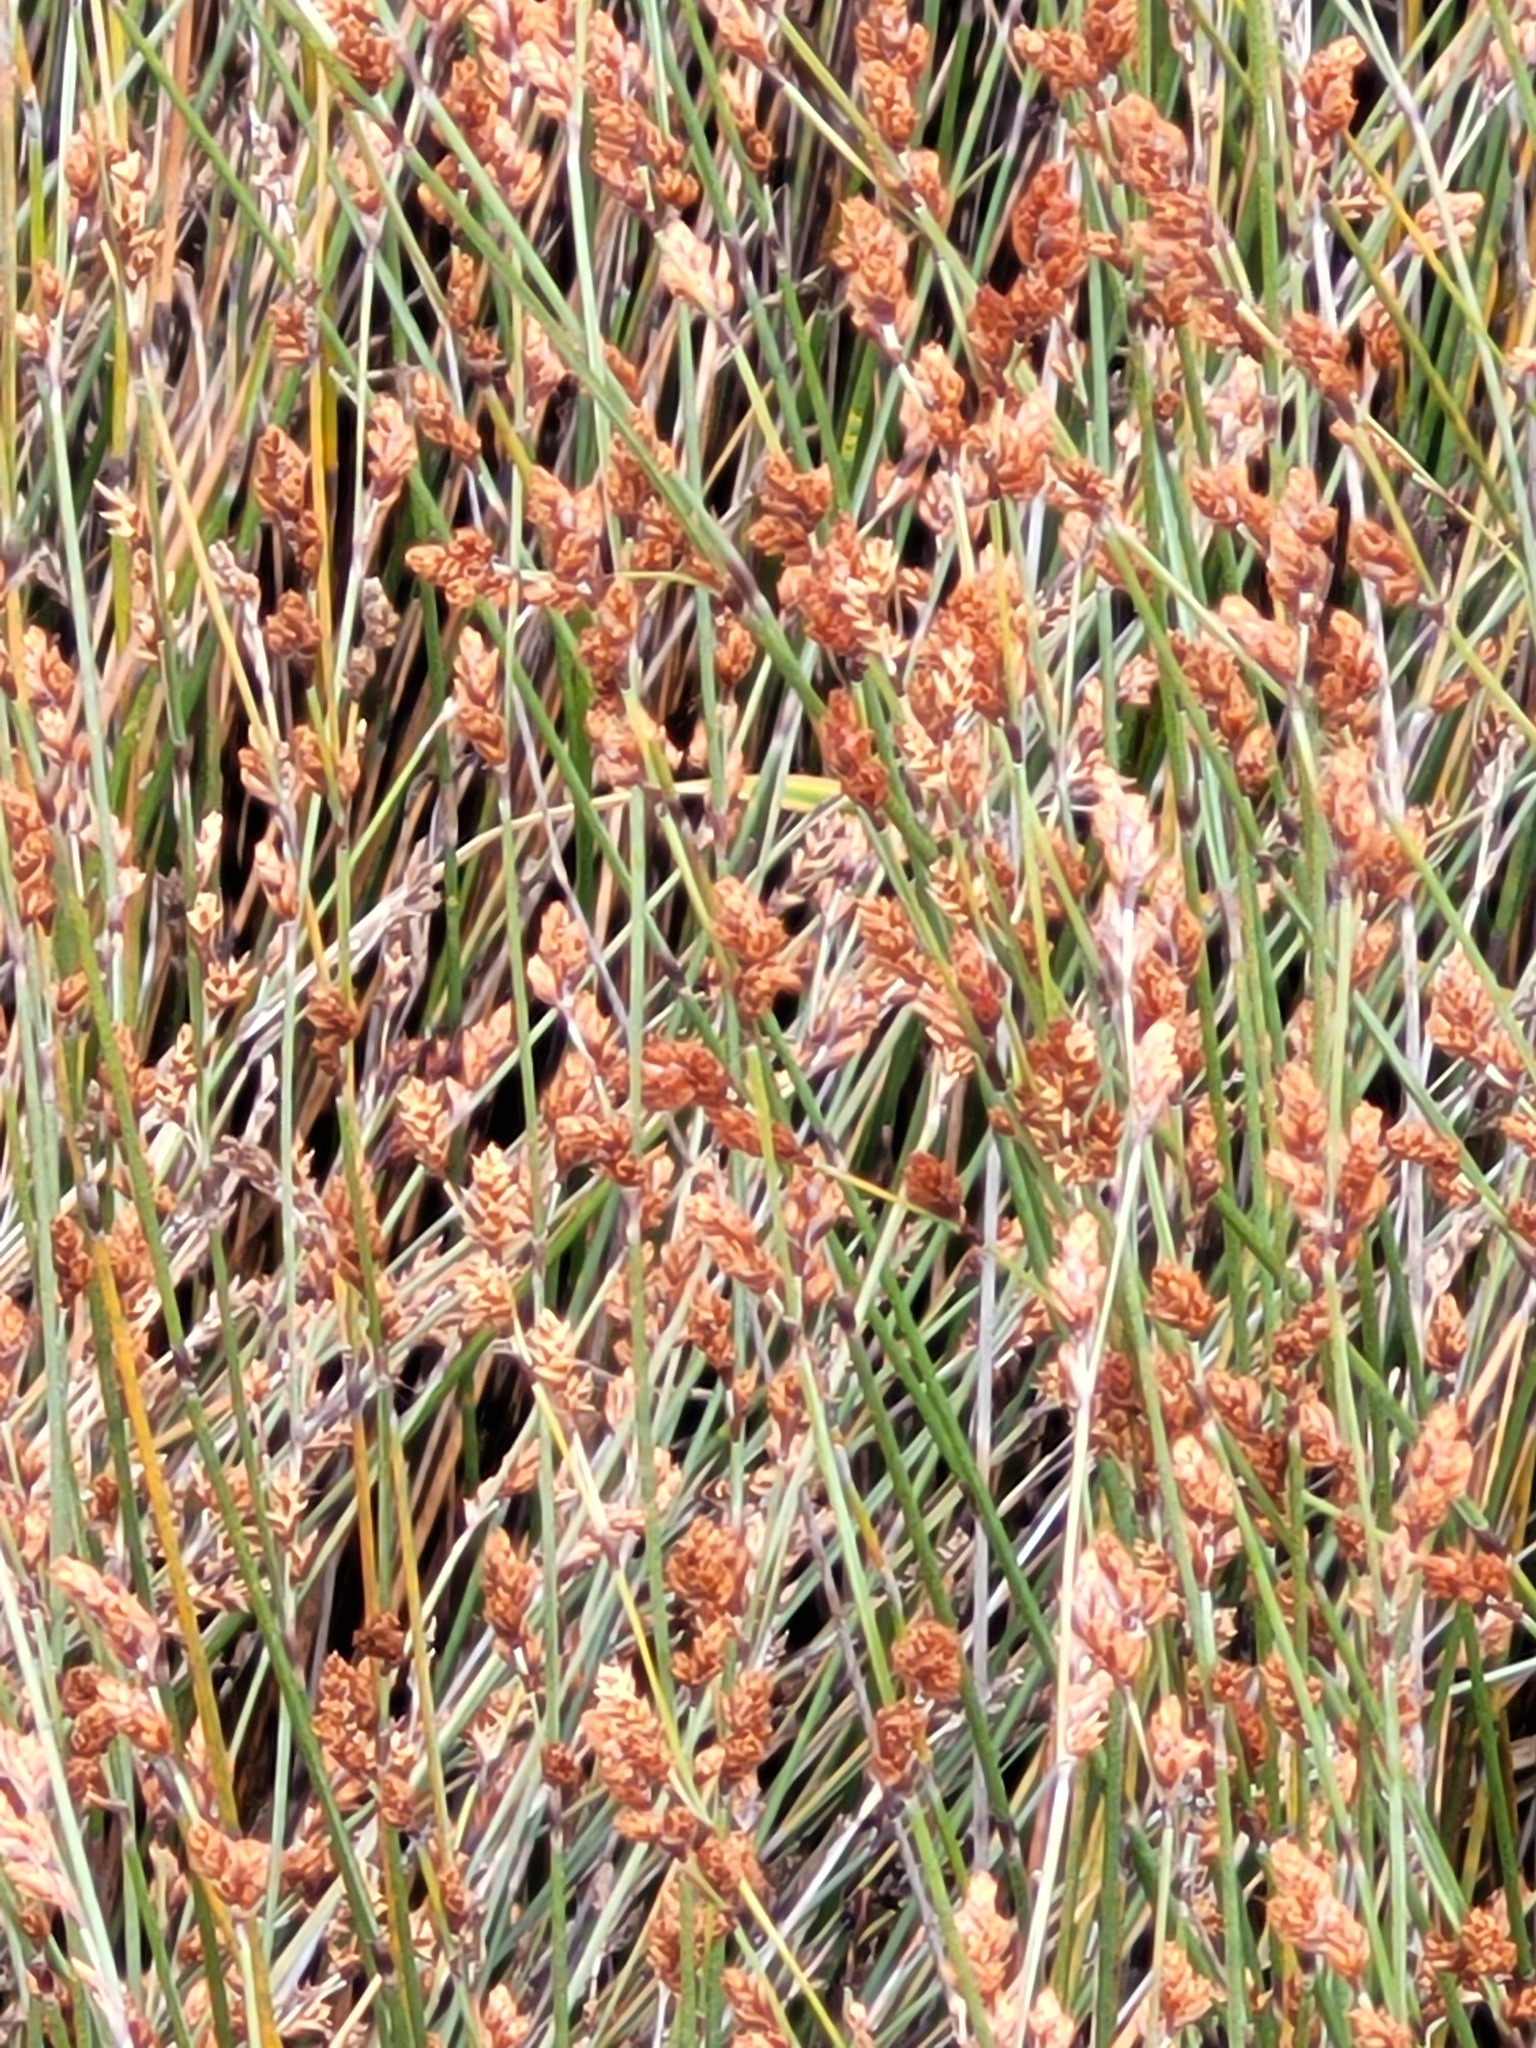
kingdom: Plantae
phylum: Tracheophyta
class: Liliopsida
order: Poales
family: Restionaceae
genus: Apodasmia
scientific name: Apodasmia similis
